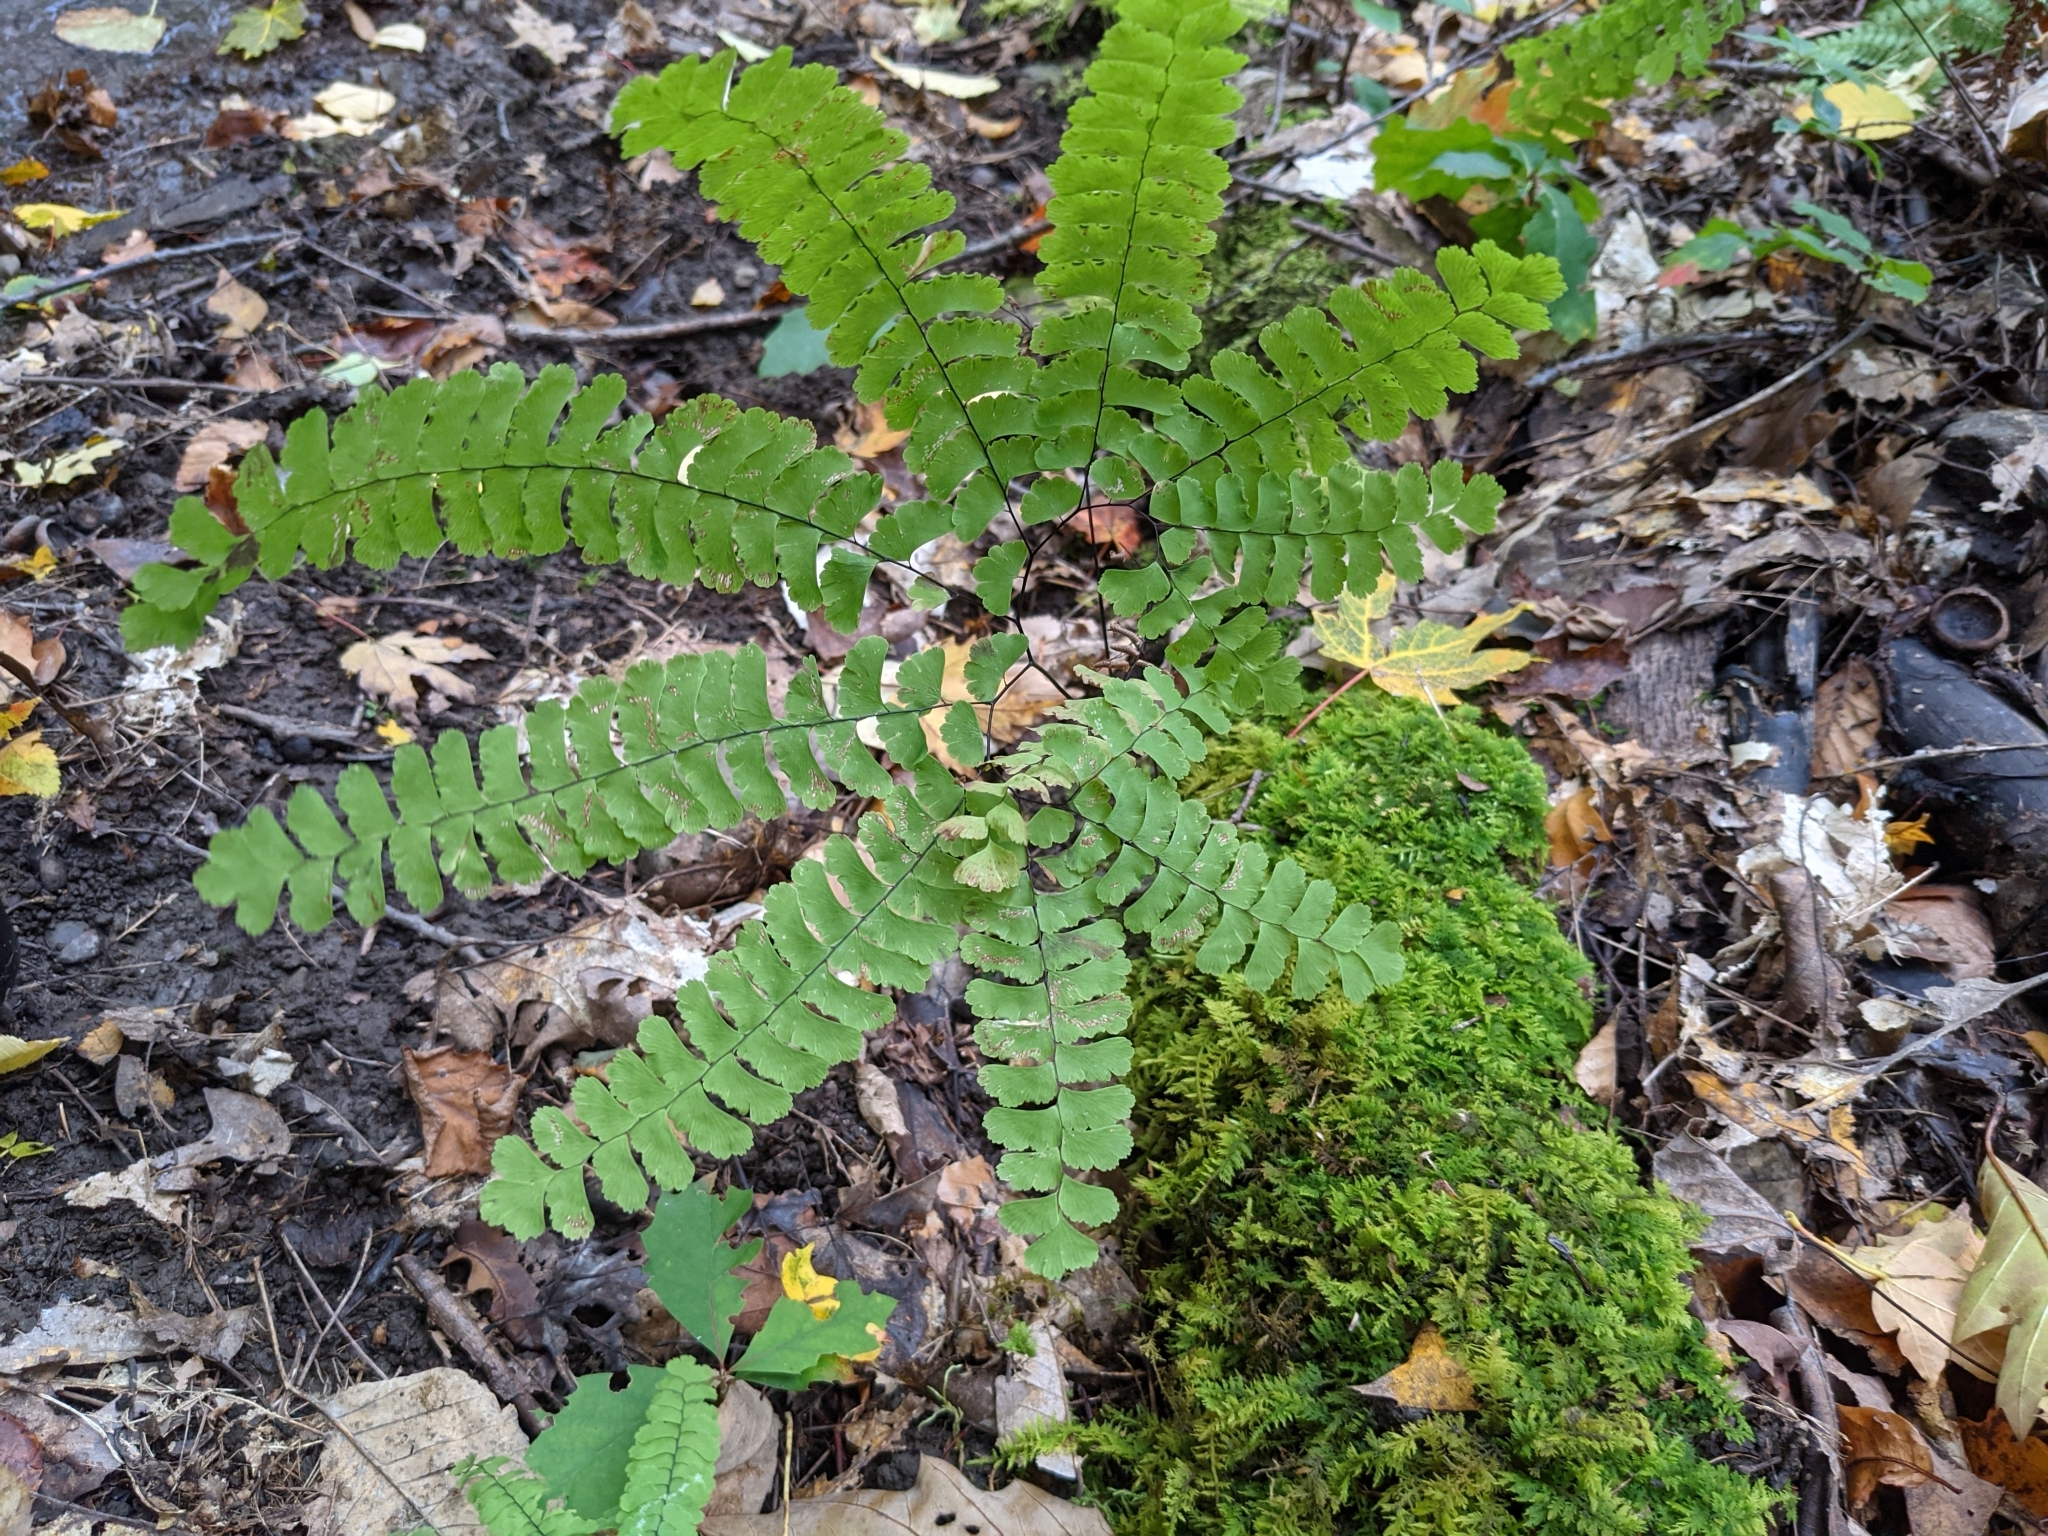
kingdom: Plantae
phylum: Tracheophyta
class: Polypodiopsida
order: Polypodiales
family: Pteridaceae
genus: Adiantum
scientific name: Adiantum pedatum
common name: Five-finger fern
